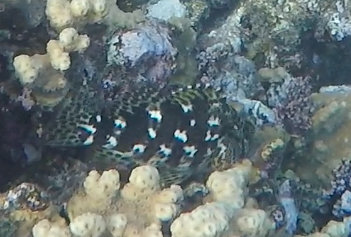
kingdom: Animalia
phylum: Chordata
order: Perciformes
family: Cirrhitidae
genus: Cirrhitus
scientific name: Cirrhitus pinnulatus
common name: Stocky hawkfish
